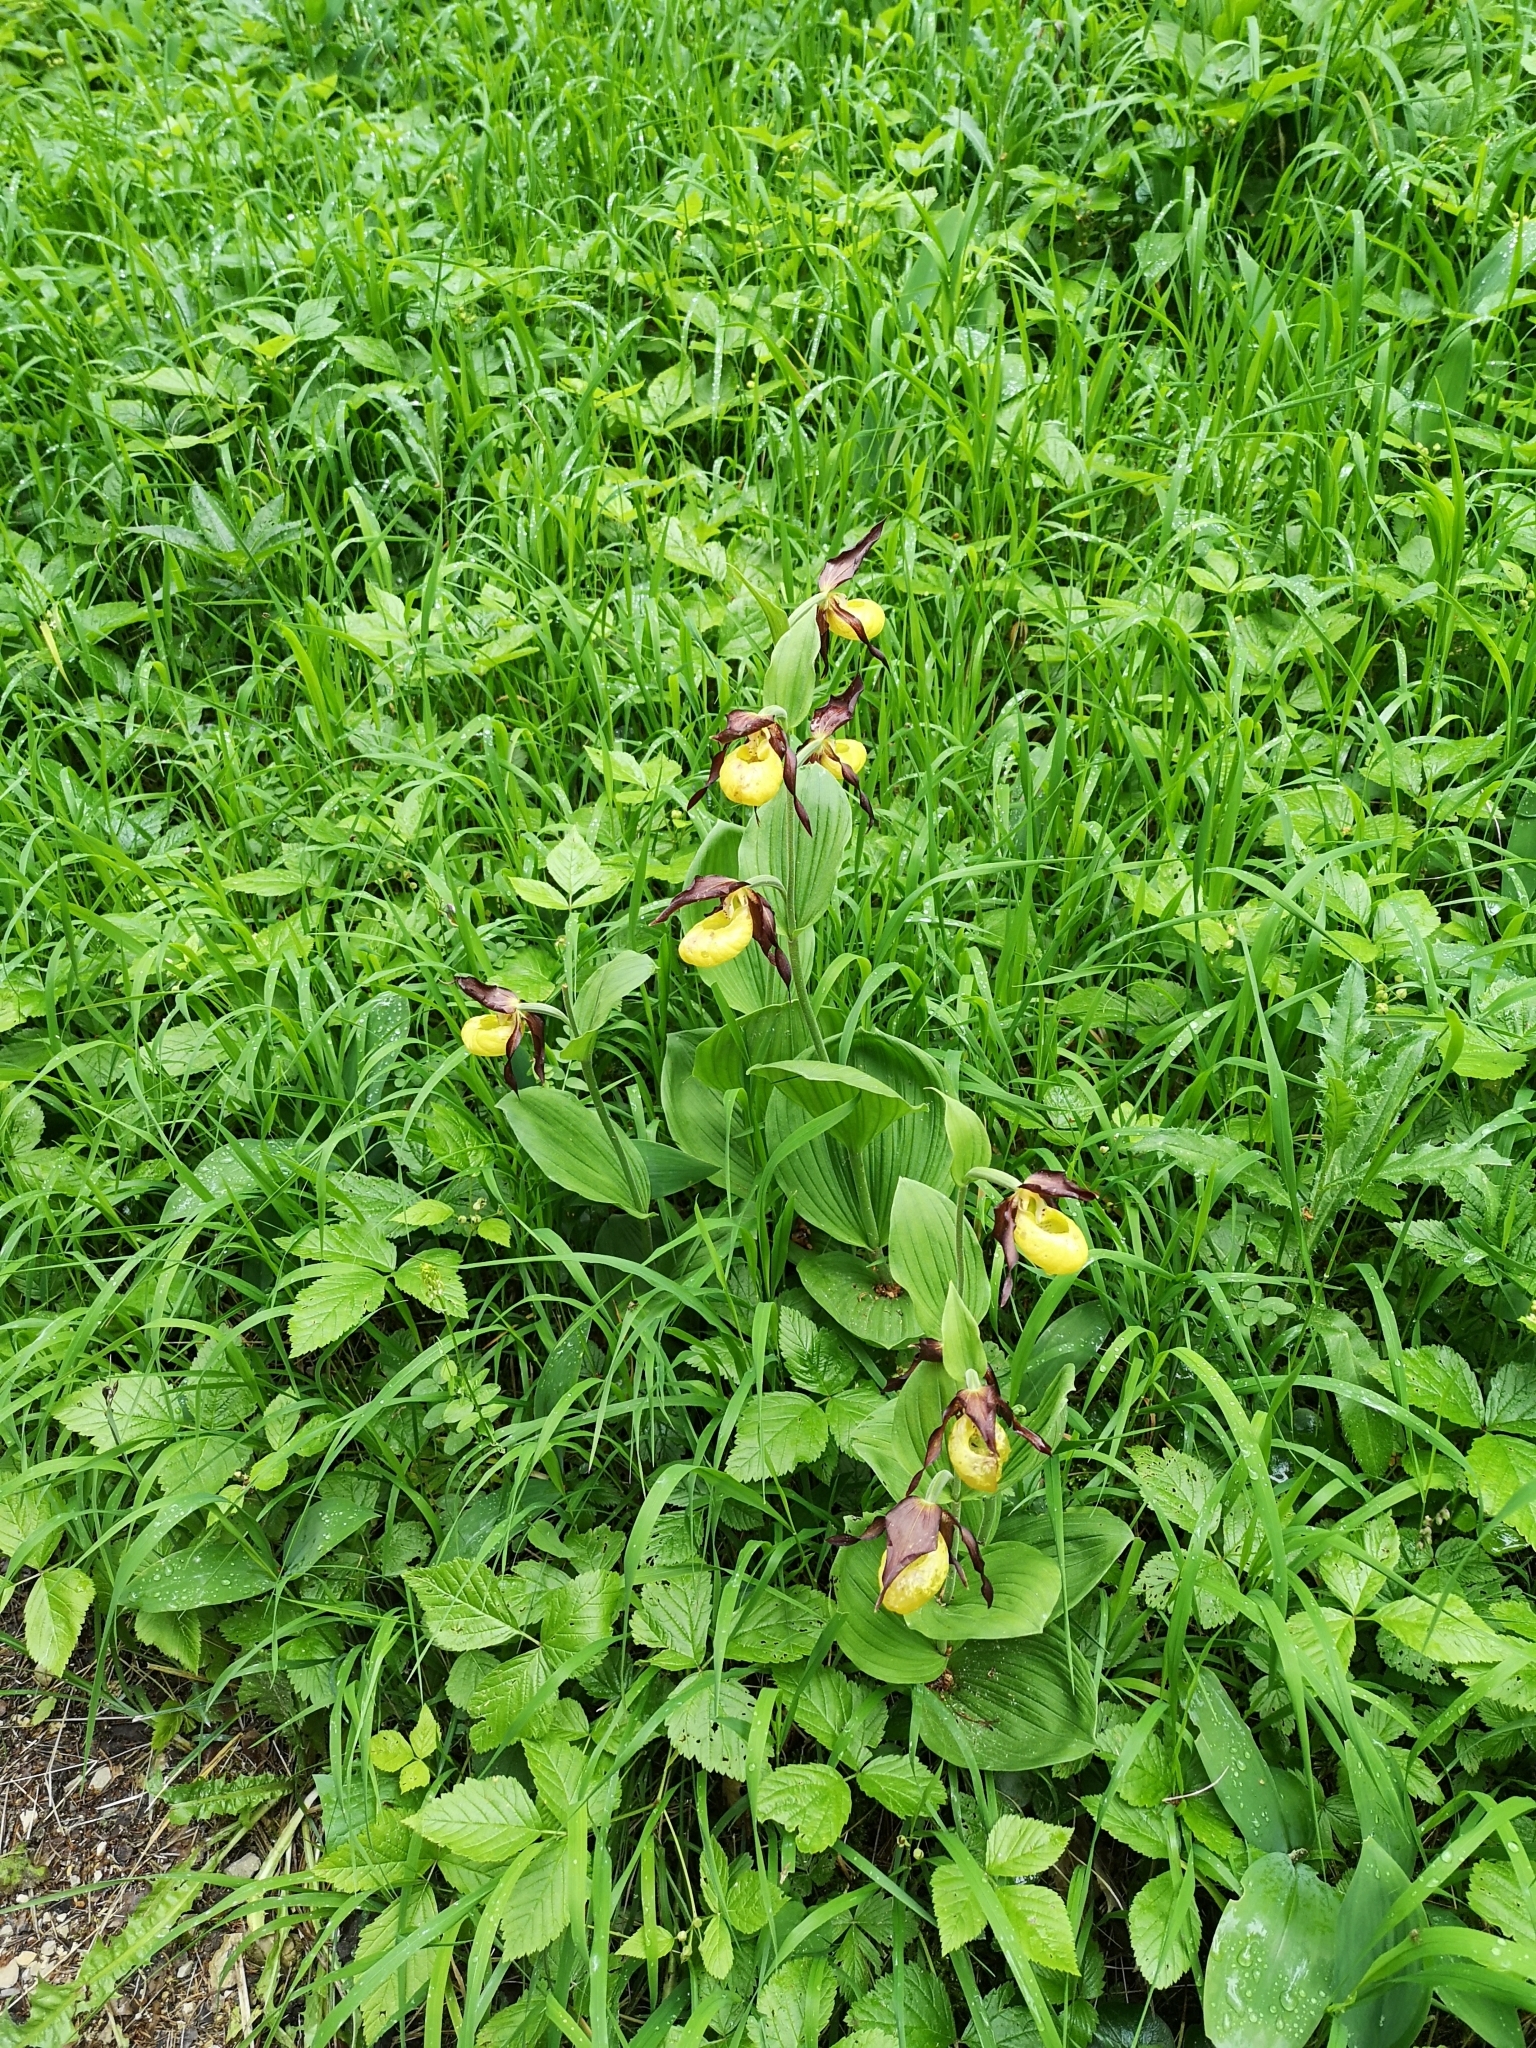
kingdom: Plantae
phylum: Tracheophyta
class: Liliopsida
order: Asparagales
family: Orchidaceae
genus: Cypripedium
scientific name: Cypripedium calceolus
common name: Lady's-slipper
